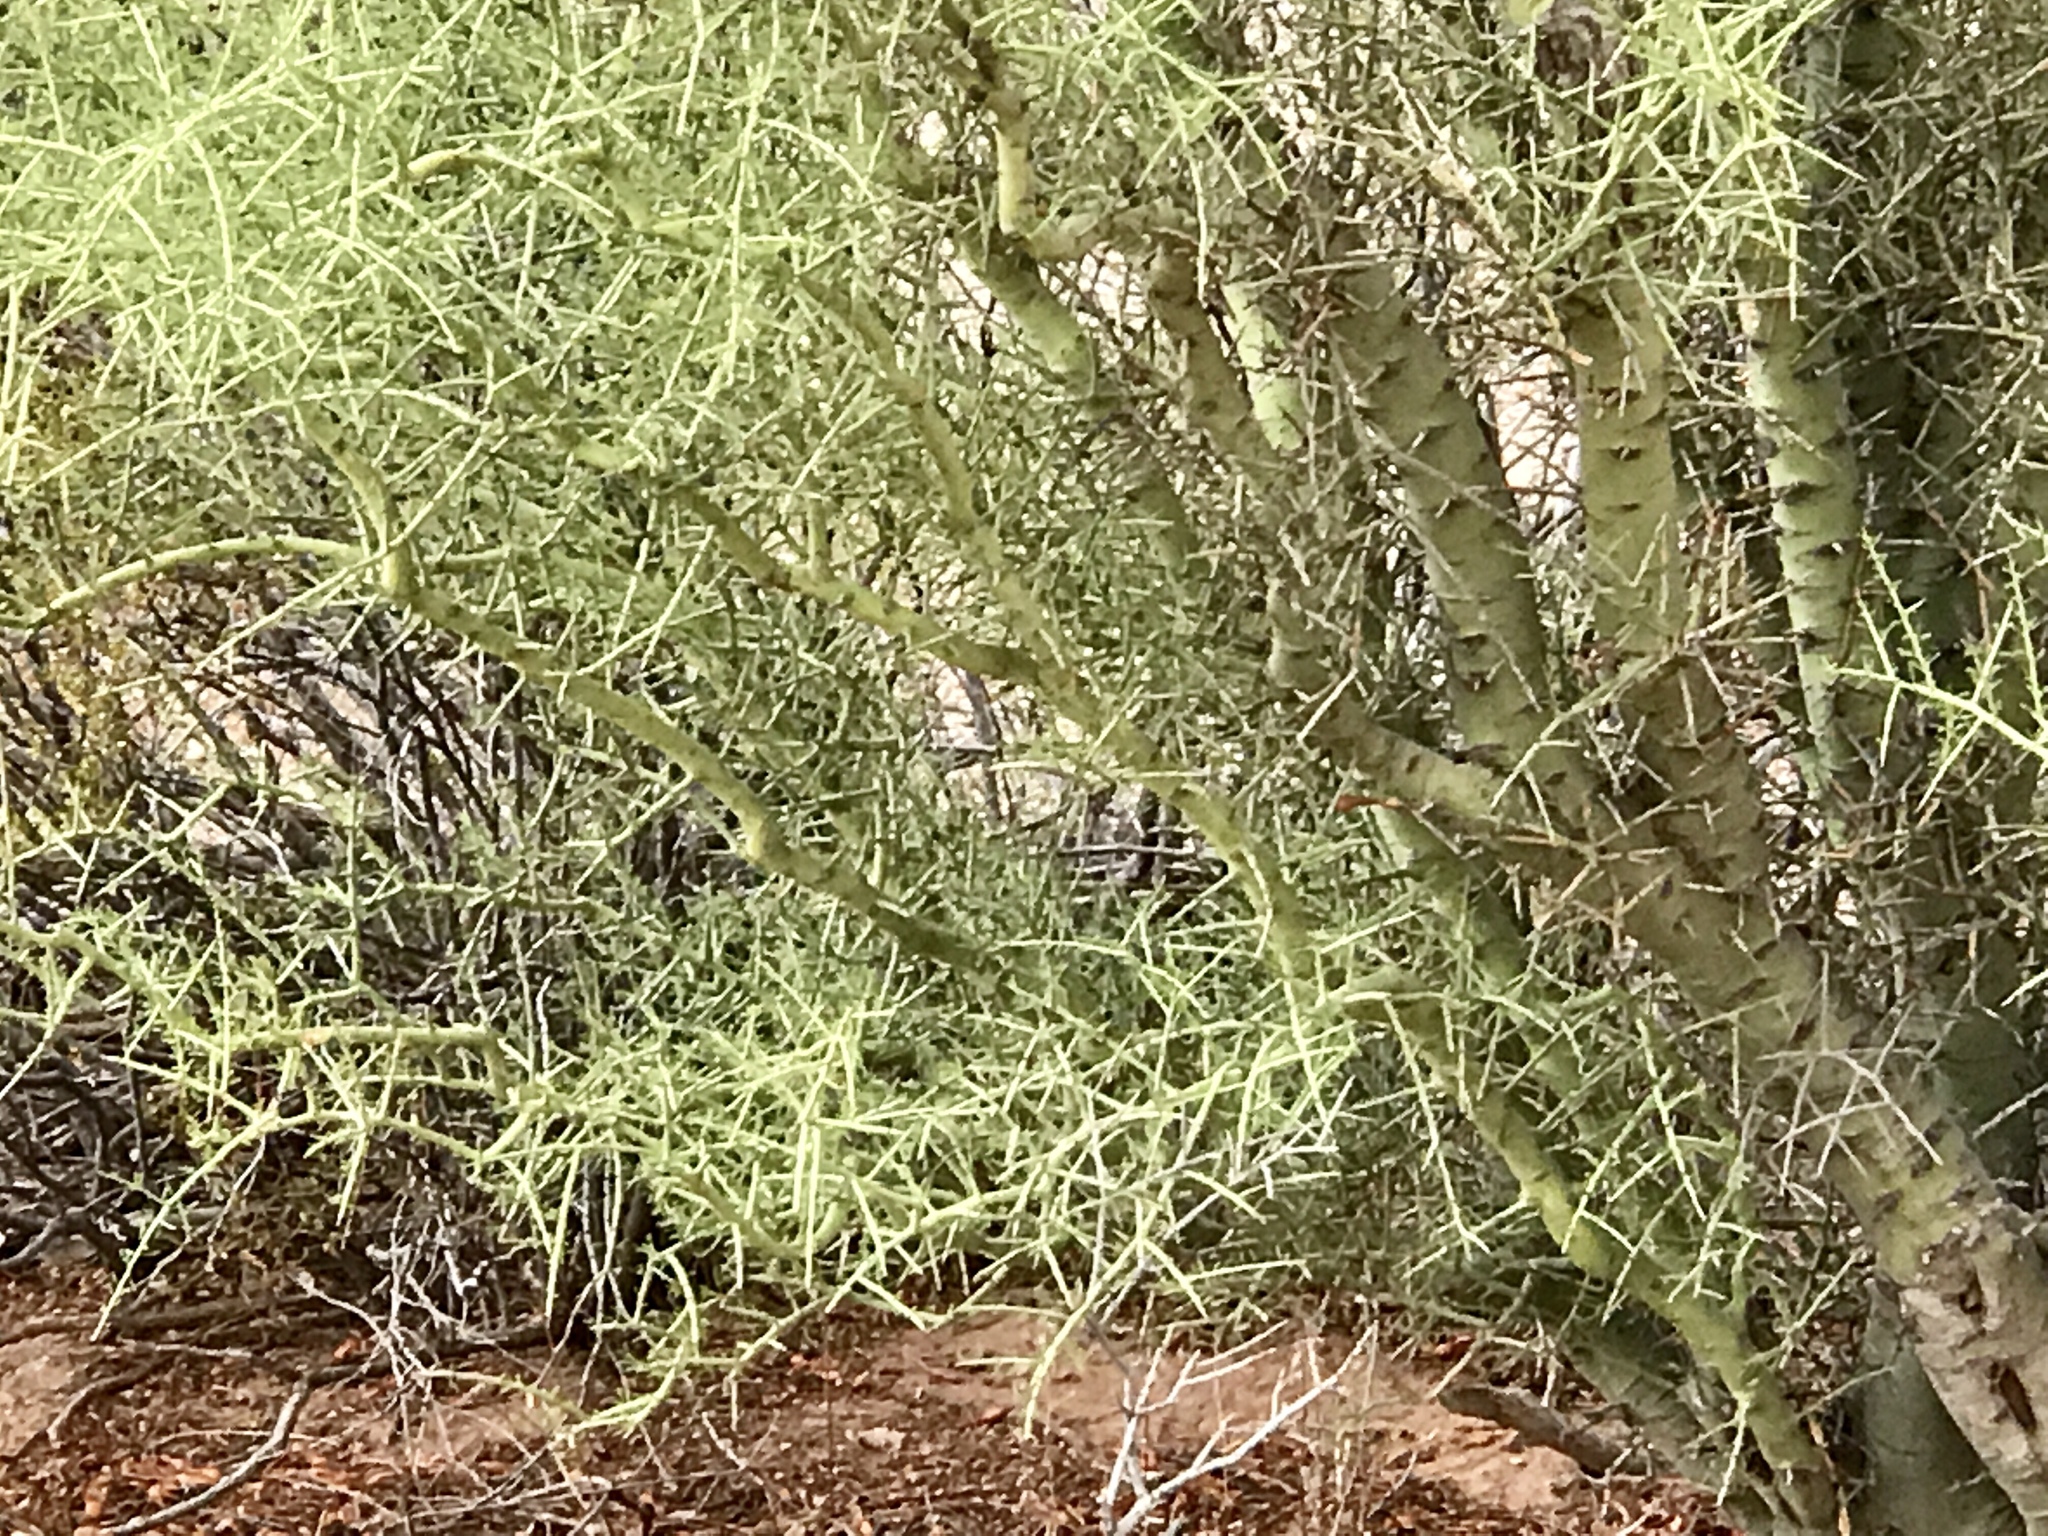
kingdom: Plantae
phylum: Tracheophyta
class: Magnoliopsida
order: Fabales
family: Fabaceae
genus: Parkinsonia
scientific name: Parkinsonia microphylla
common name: Yellow paloverde
